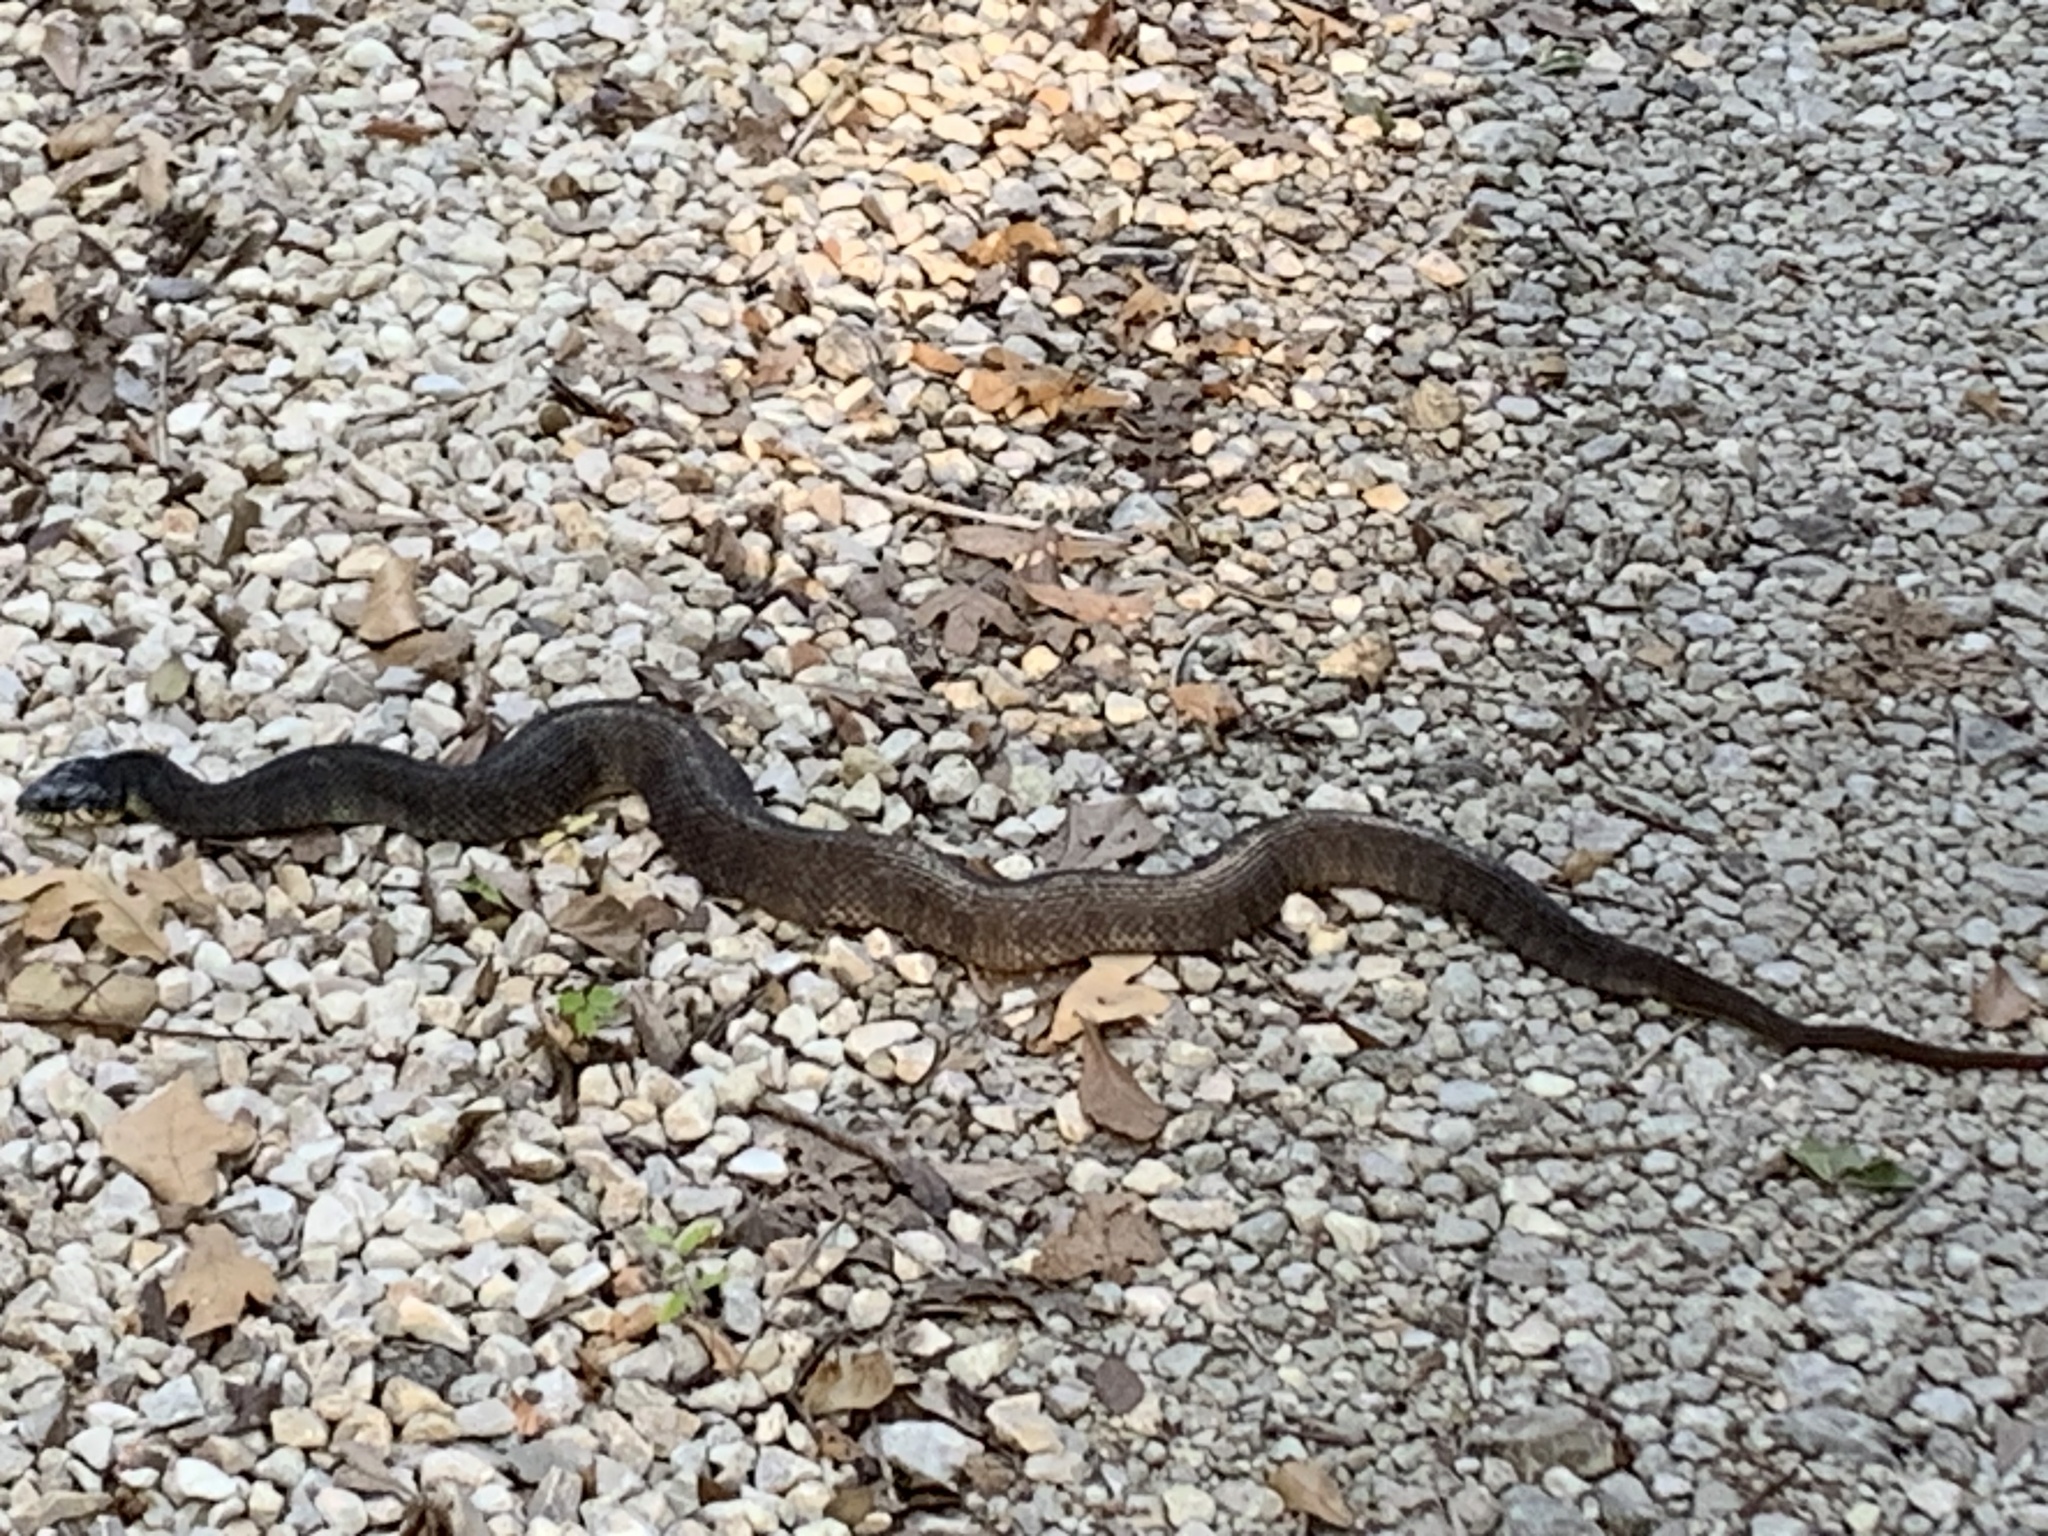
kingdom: Animalia
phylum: Chordata
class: Squamata
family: Colubridae
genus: Nerodia
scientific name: Nerodia erythrogaster
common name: Plainbelly water snake
